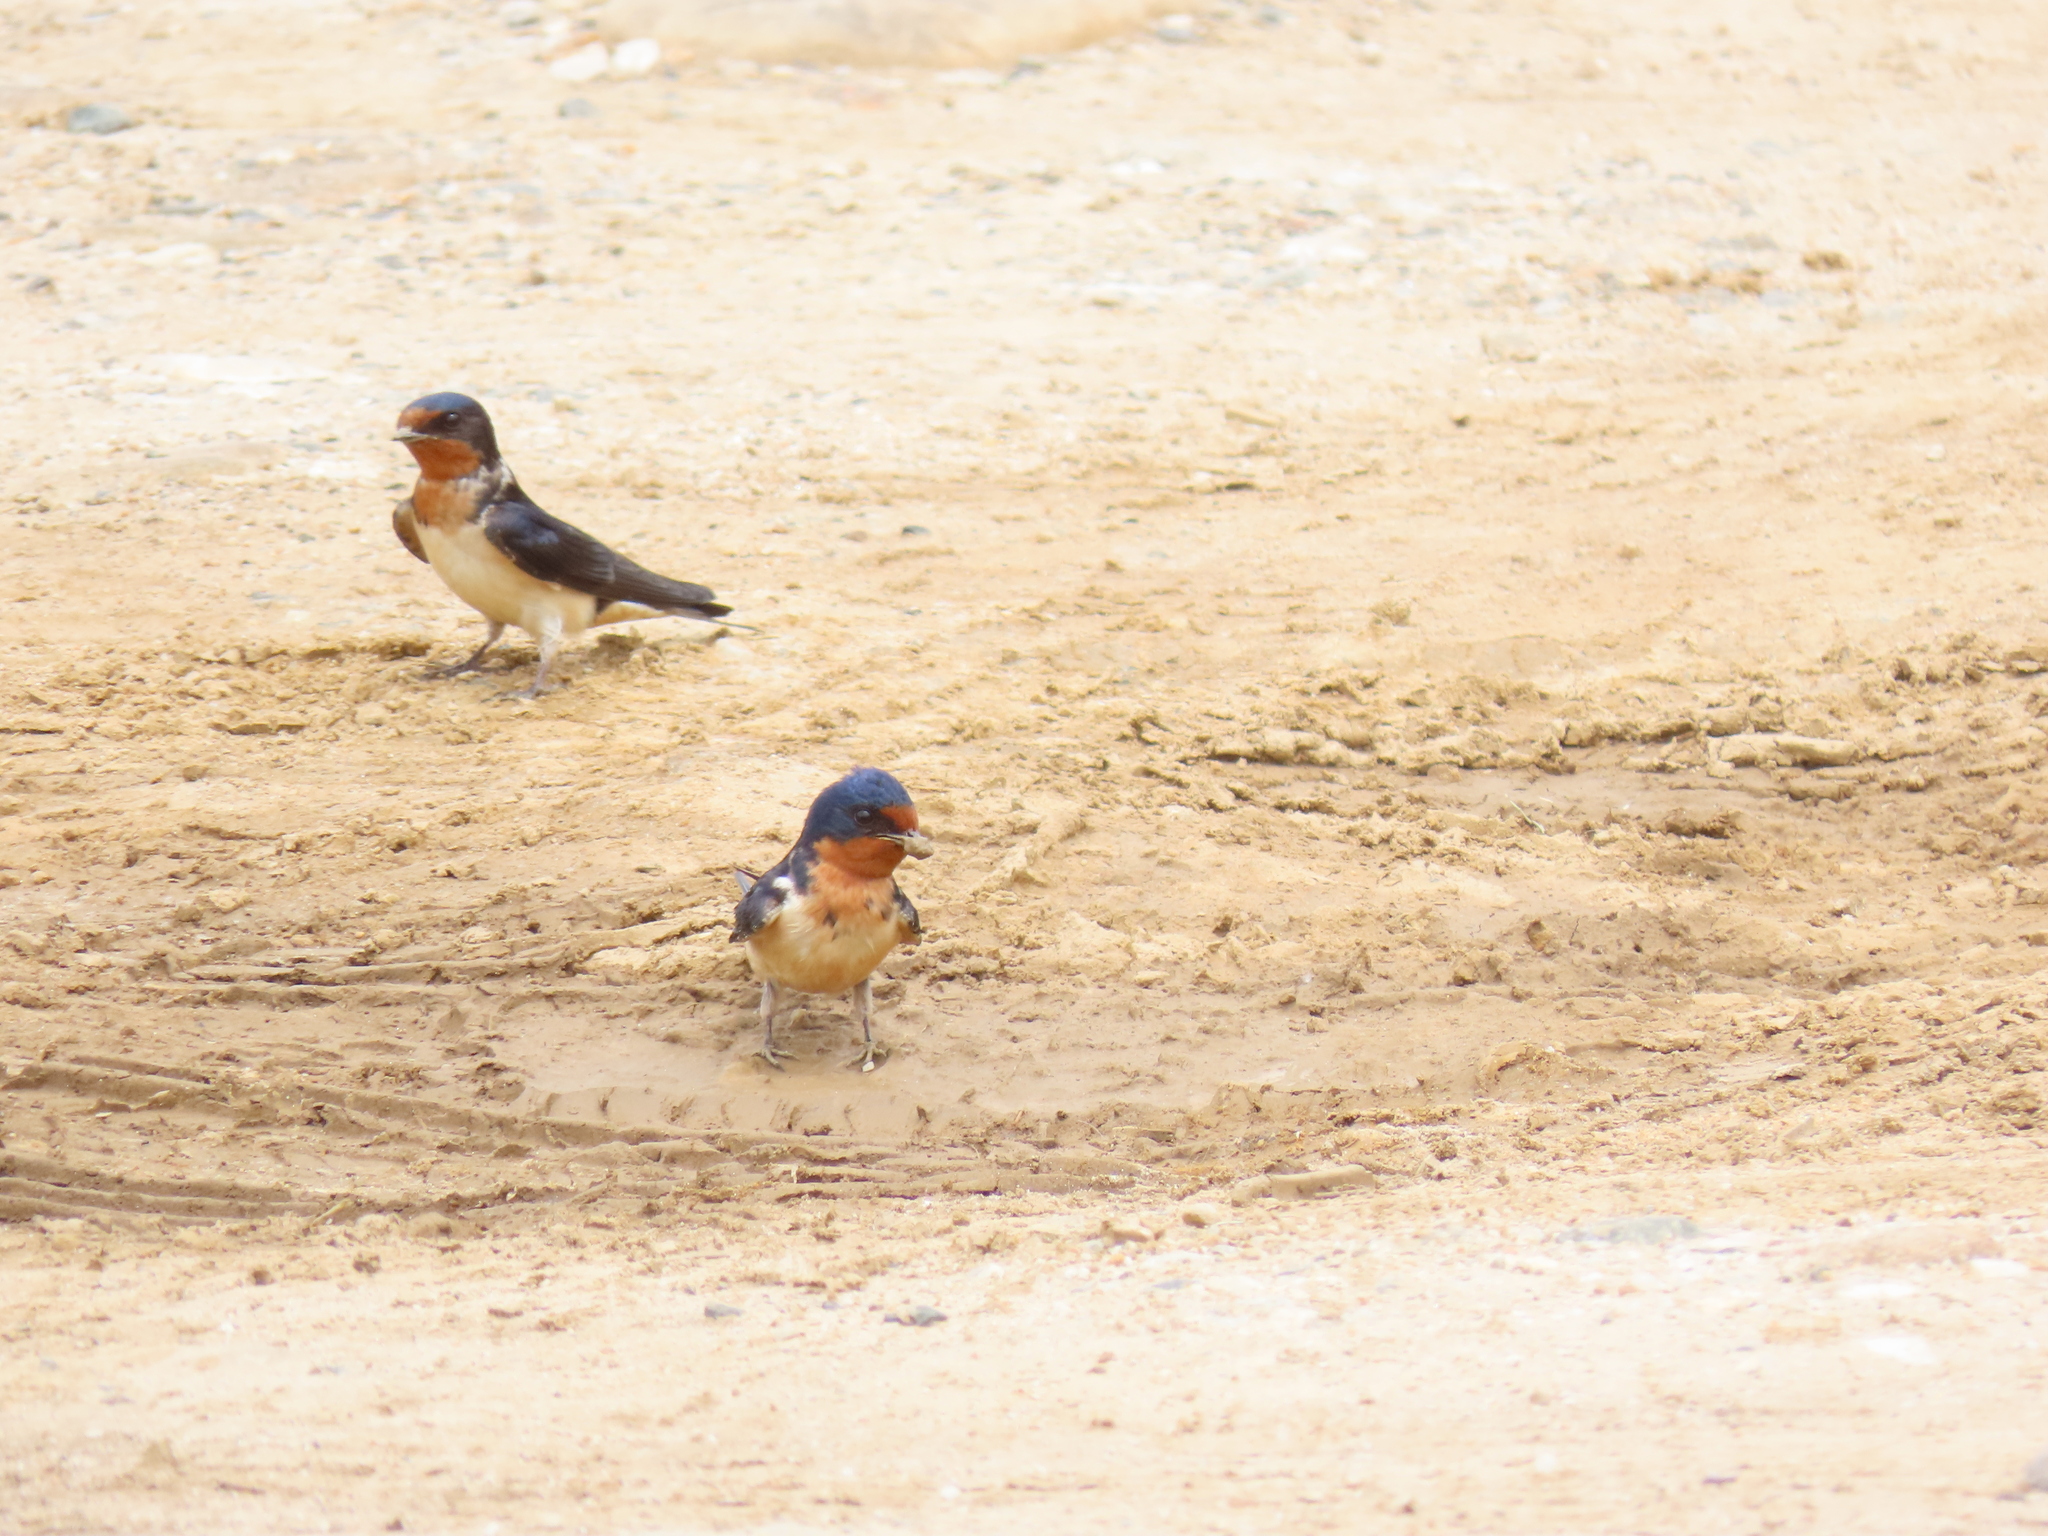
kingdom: Animalia
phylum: Chordata
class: Aves
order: Passeriformes
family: Hirundinidae
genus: Hirundo
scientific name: Hirundo rustica
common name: Barn swallow
